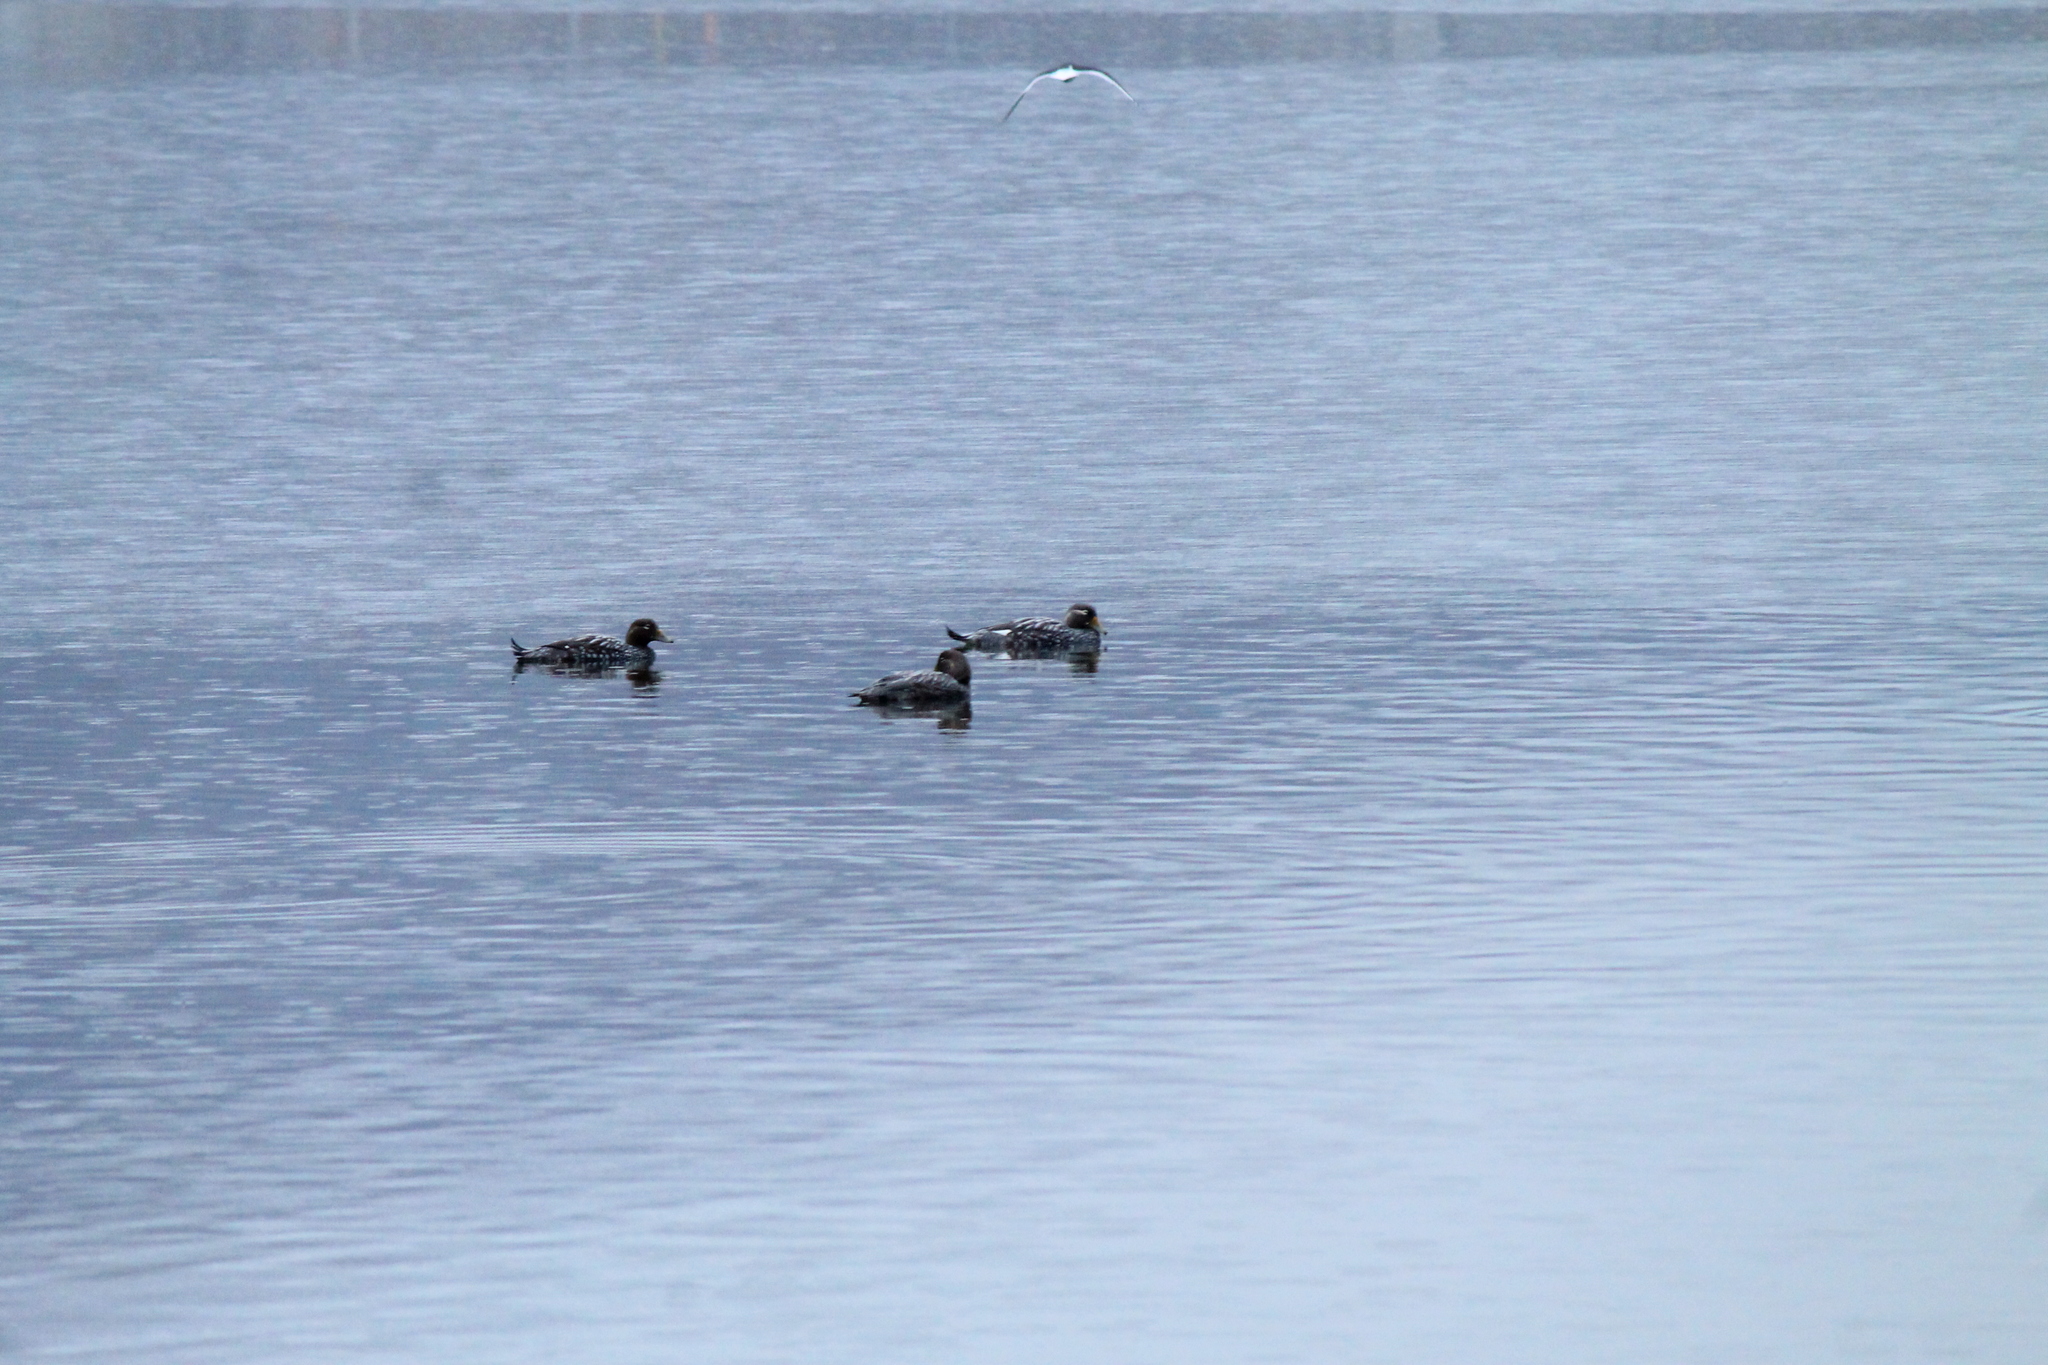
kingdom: Animalia
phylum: Chordata
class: Aves
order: Anseriformes
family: Anatidae
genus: Tachyeres
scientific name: Tachyeres patachonicus
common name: Flying steamer duck
